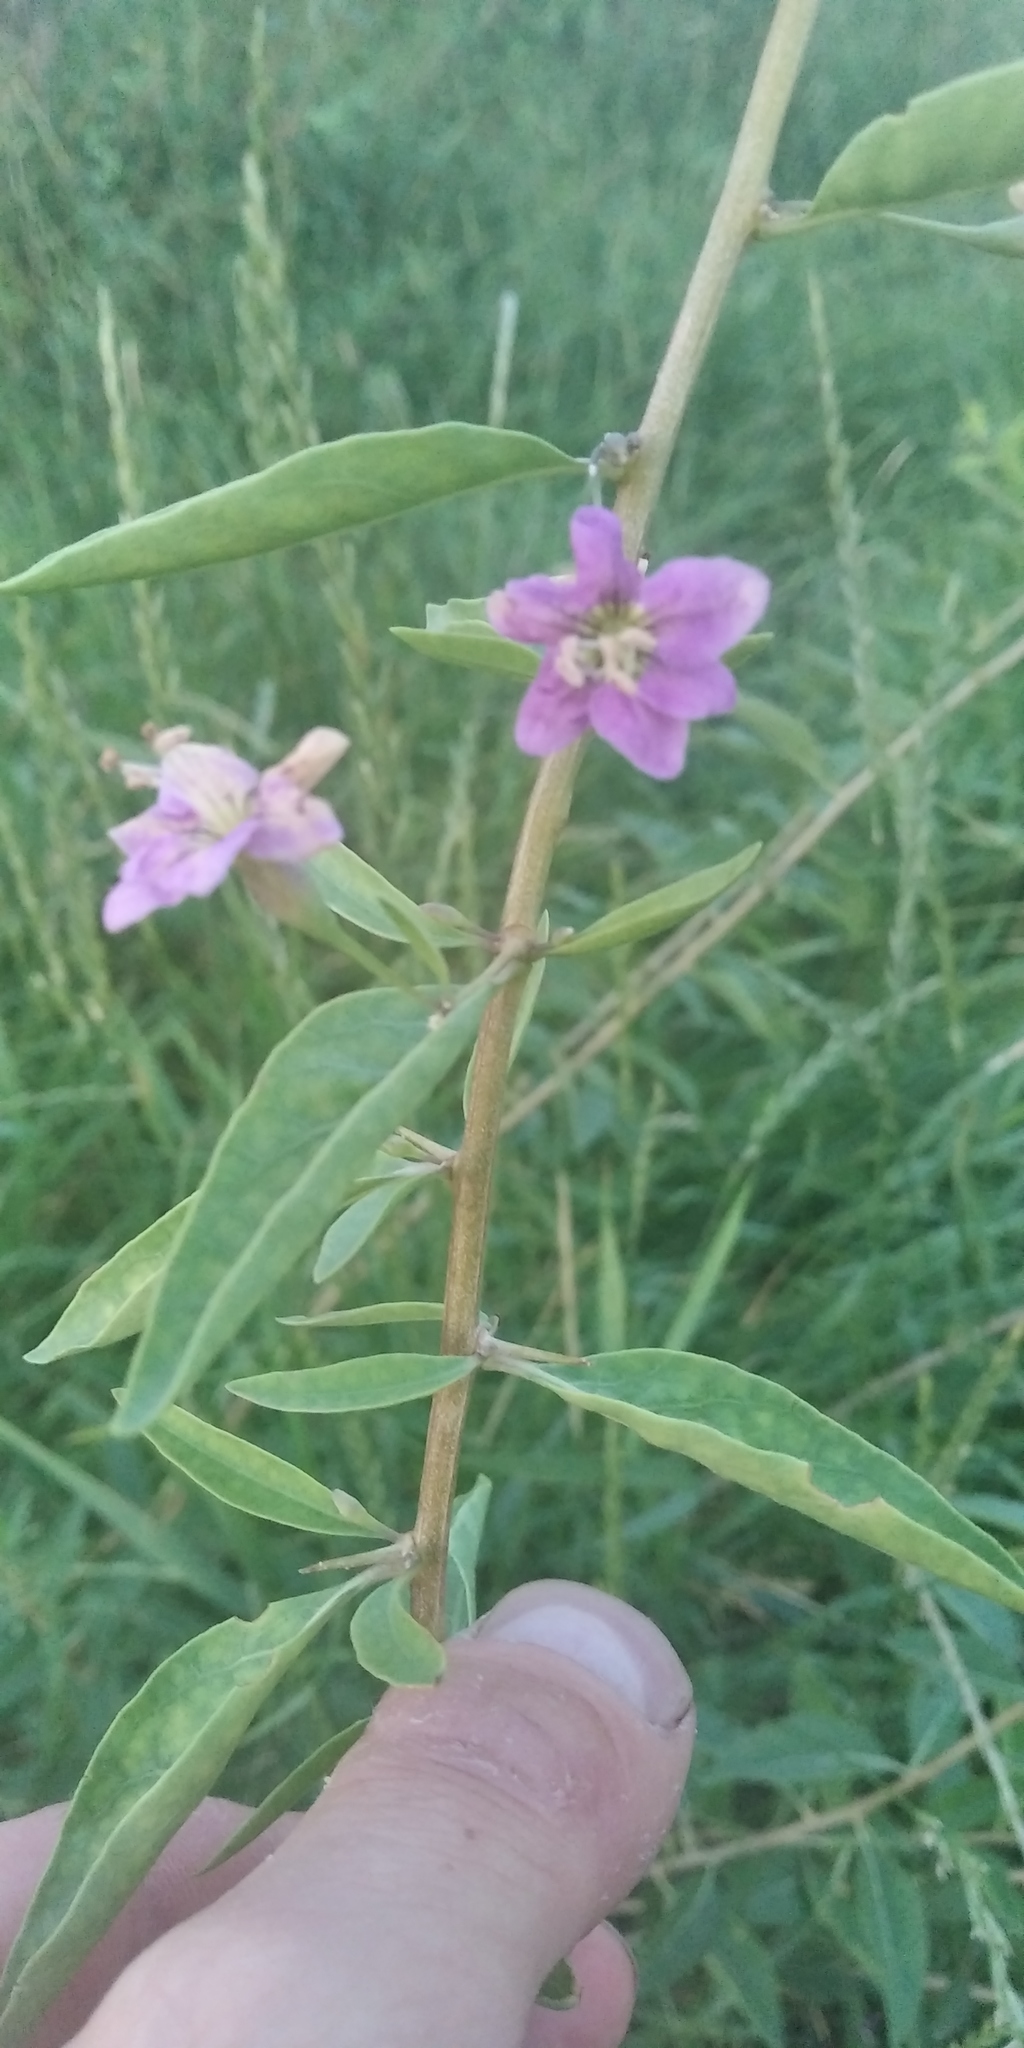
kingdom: Plantae
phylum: Tracheophyta
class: Magnoliopsida
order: Solanales
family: Solanaceae
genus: Lycium
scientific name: Lycium barbarum
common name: Duke of argyll's teaplant
